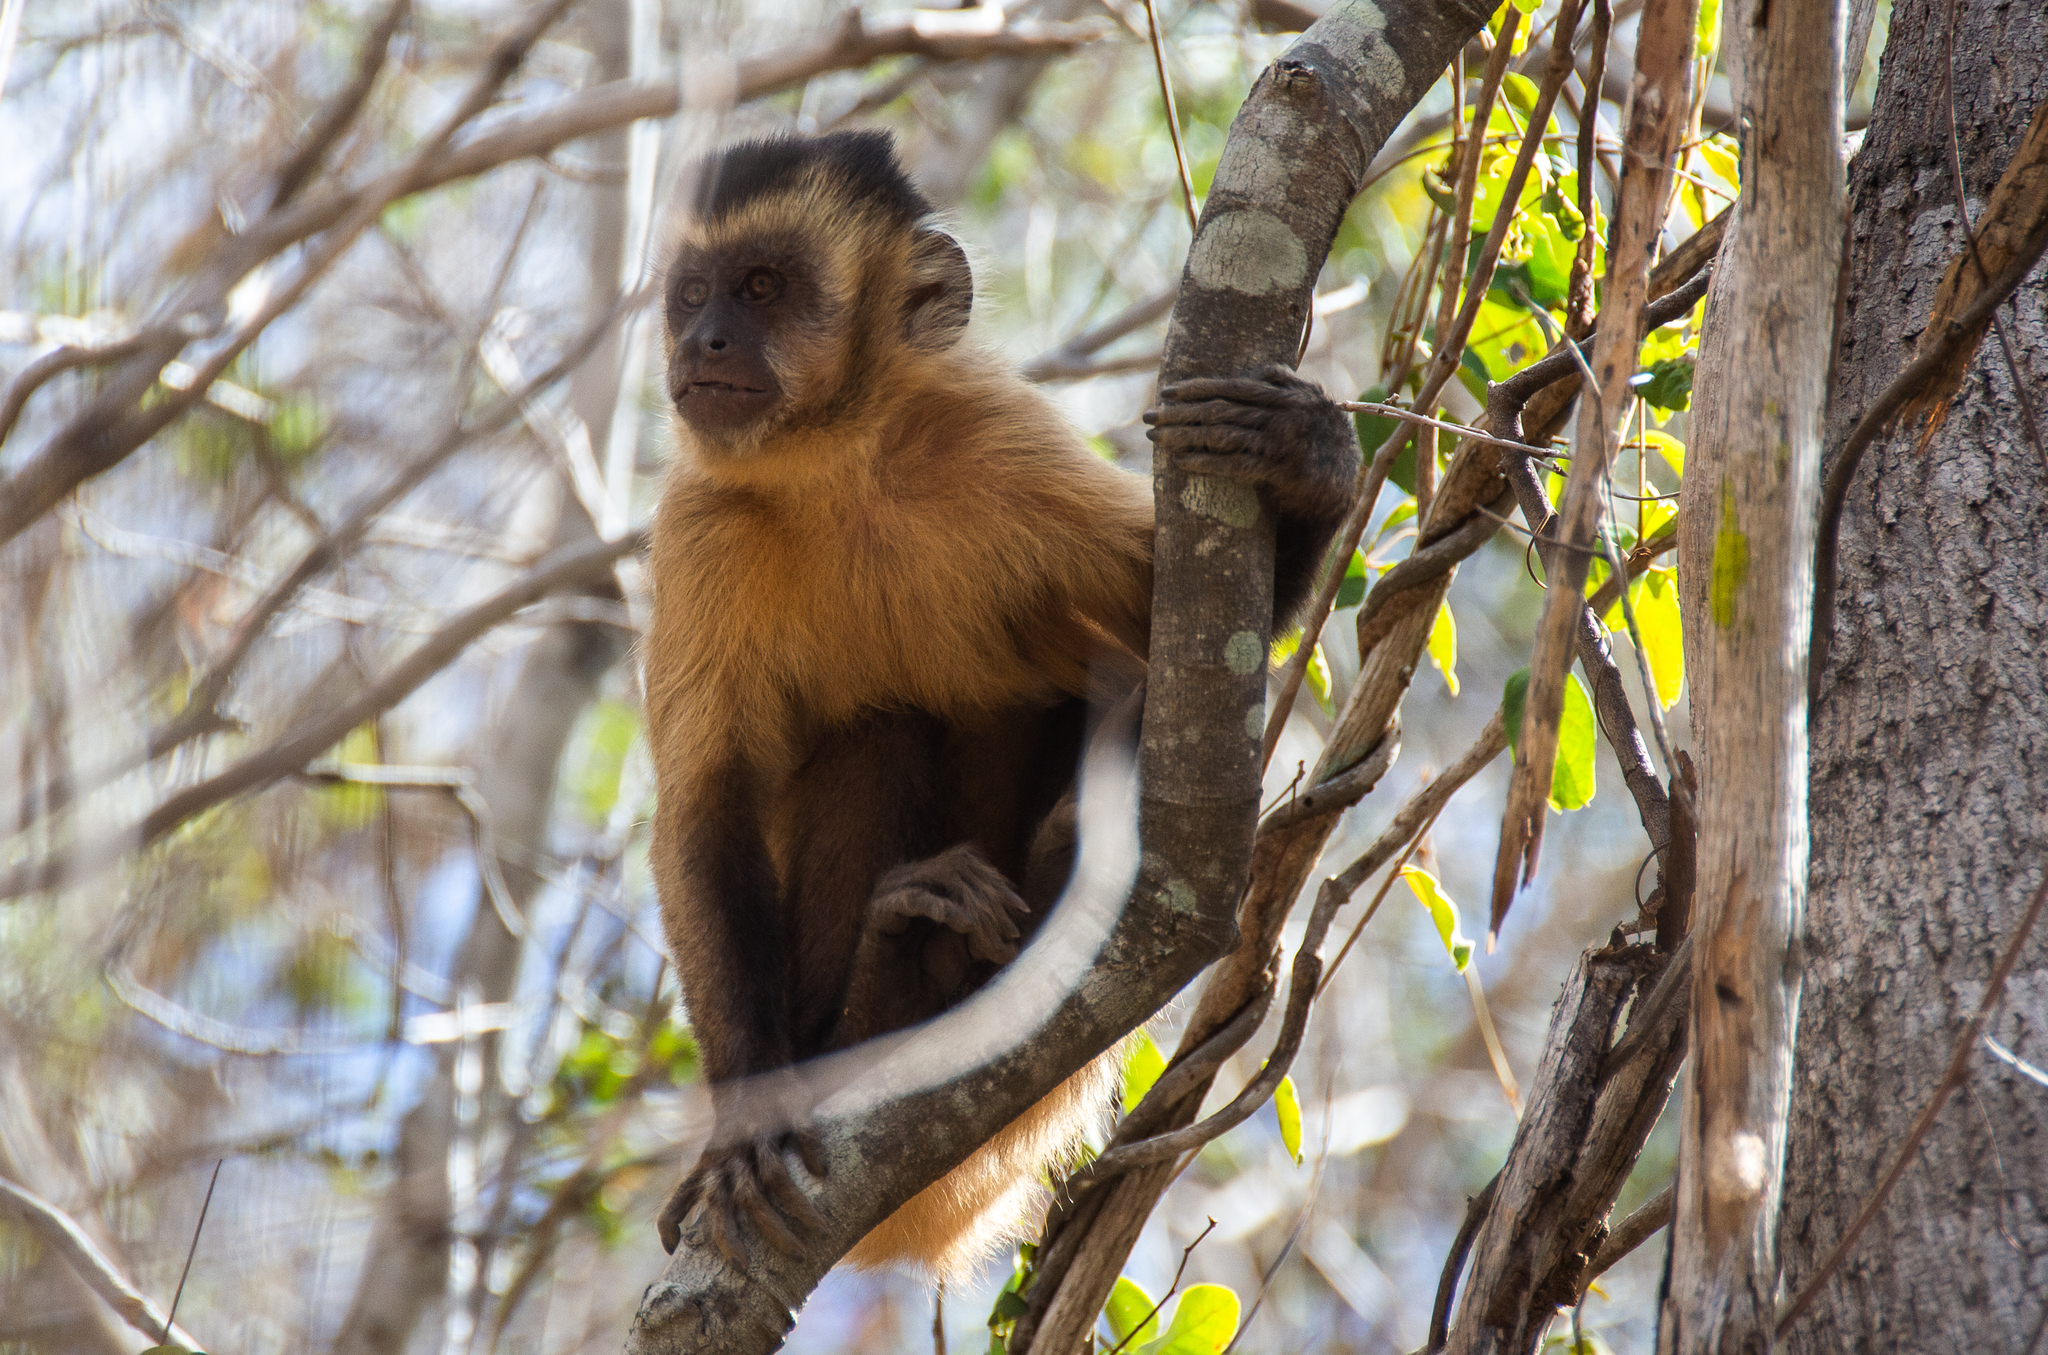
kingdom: Animalia
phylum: Chordata
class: Mammalia
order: Primates
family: Cebidae
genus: Sapajus
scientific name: Sapajus libidinosus
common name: Bearded capuchin
